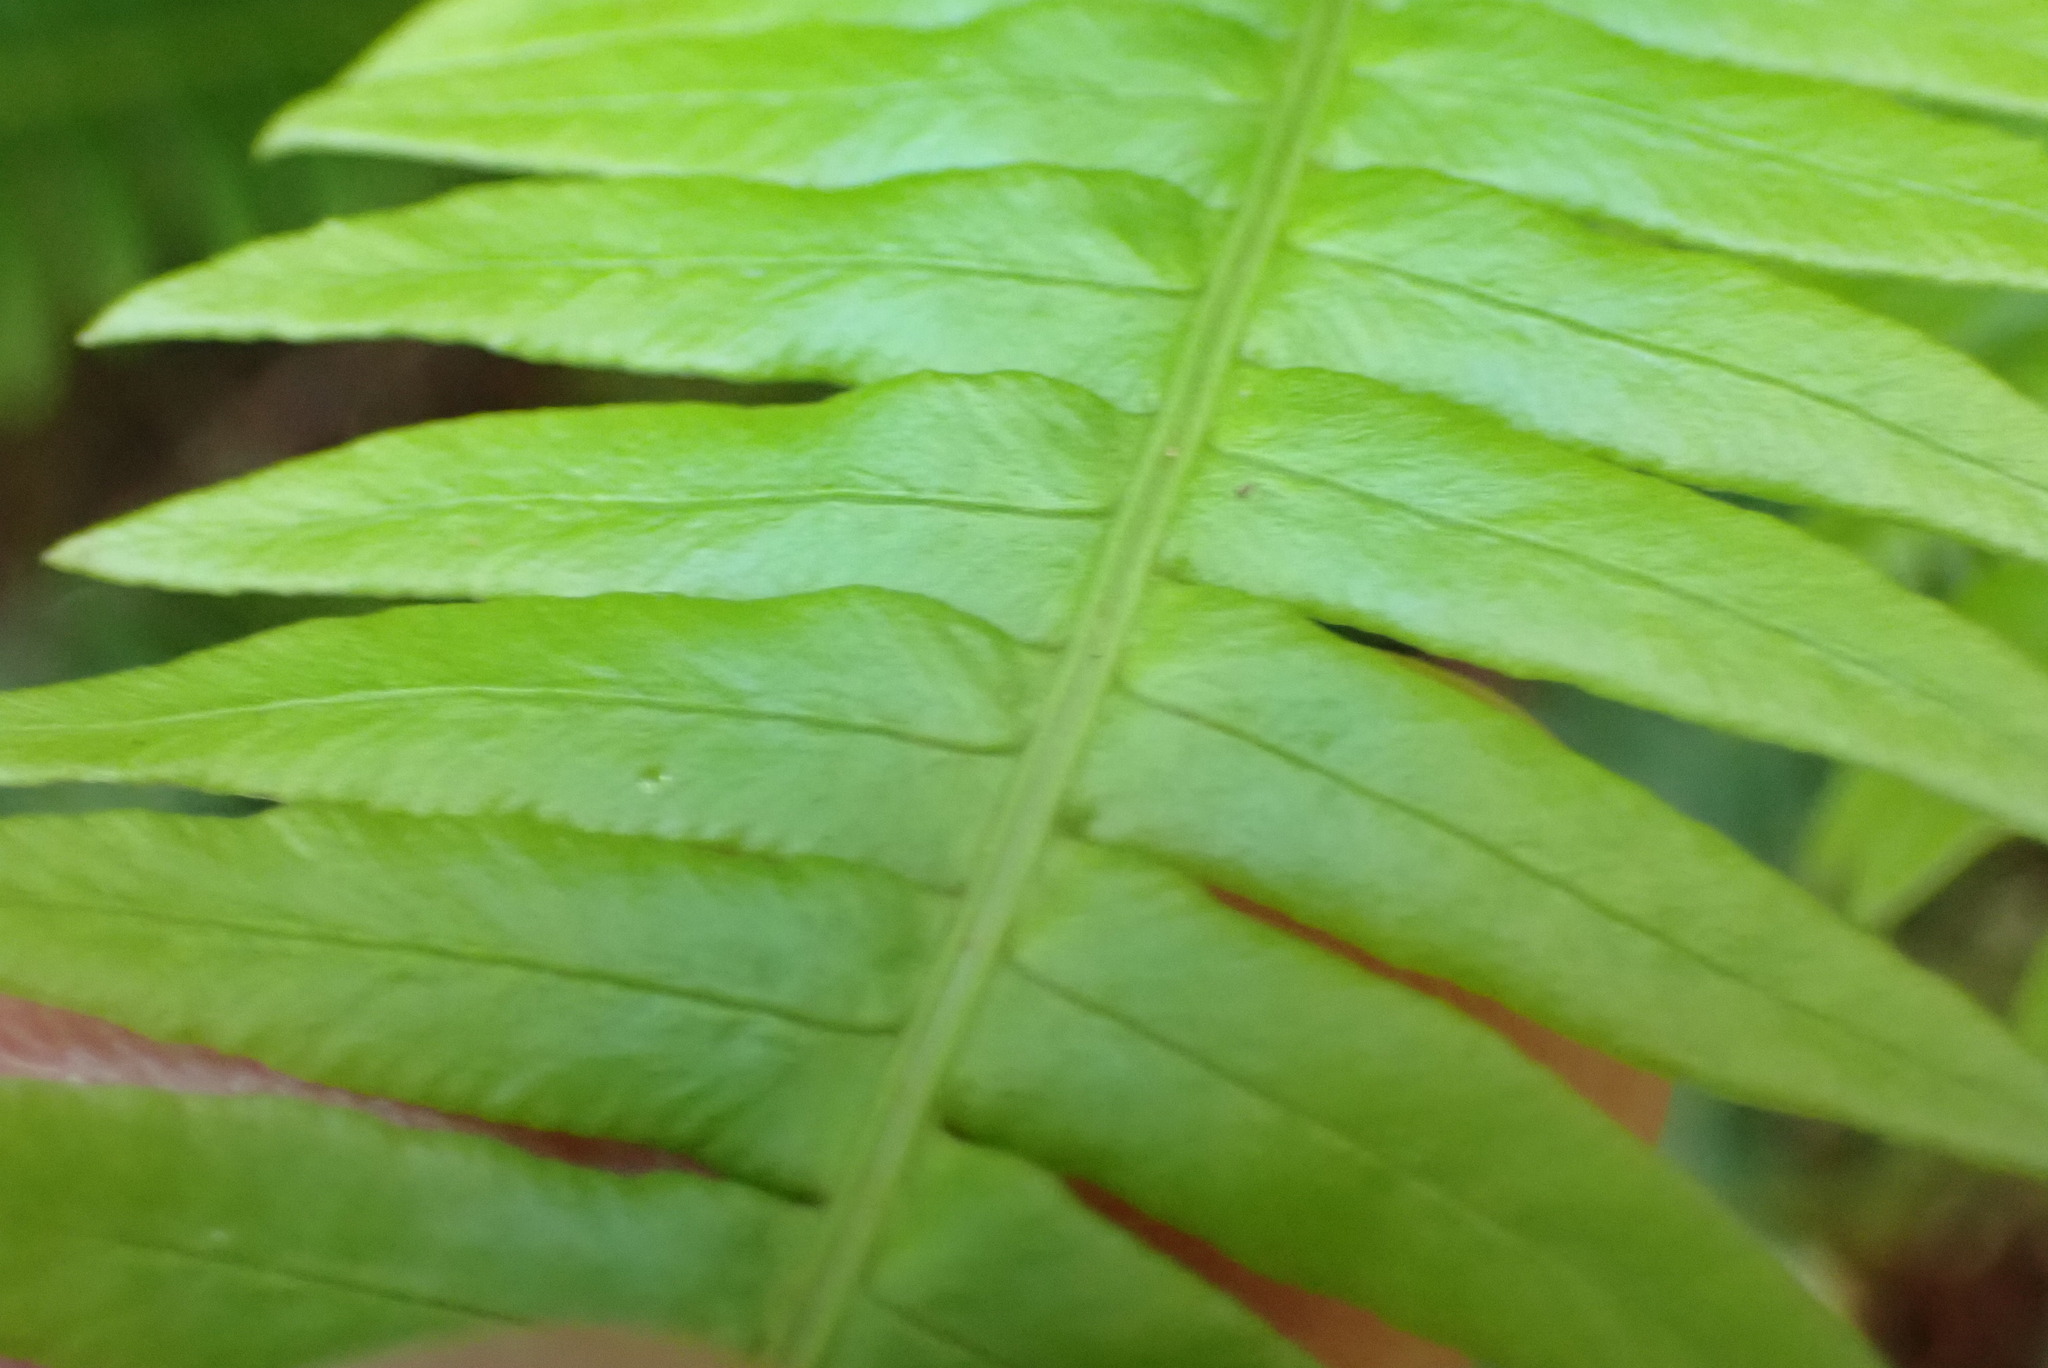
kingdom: Plantae
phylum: Tracheophyta
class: Polypodiopsida
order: Polypodiales
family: Blechnaceae
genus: Struthiopteris
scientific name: Struthiopteris spicant
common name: Deer fern
